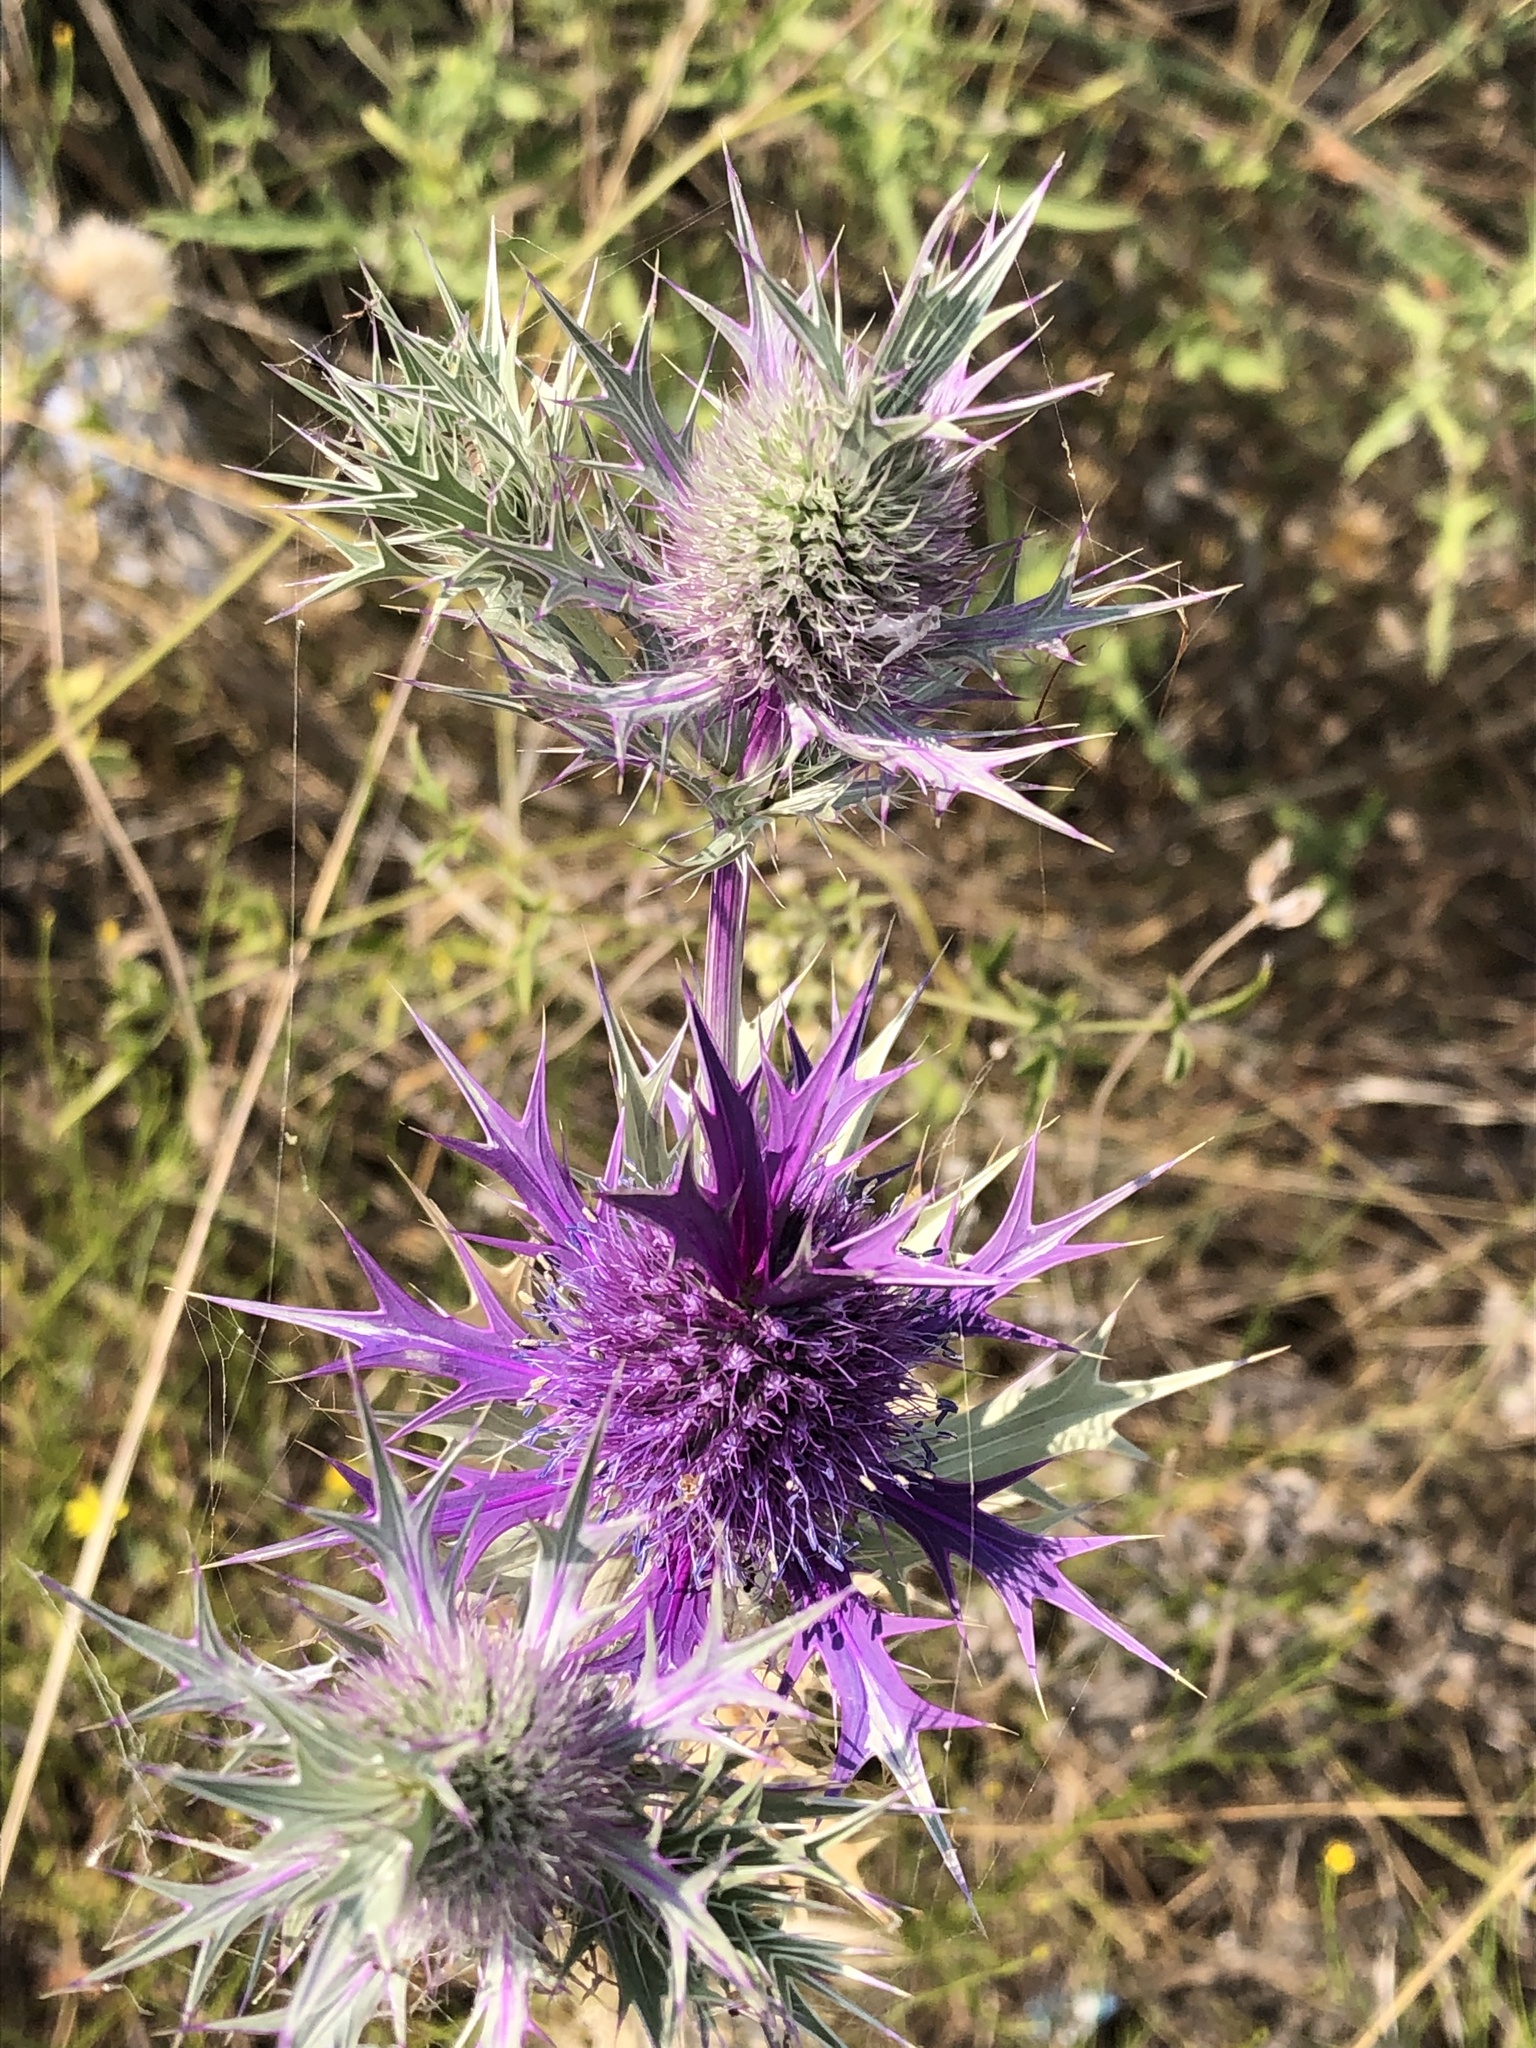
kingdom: Plantae
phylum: Tracheophyta
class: Magnoliopsida
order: Apiales
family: Apiaceae
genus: Eryngium
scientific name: Eryngium leavenworthii
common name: Leavenworth's eryngo
